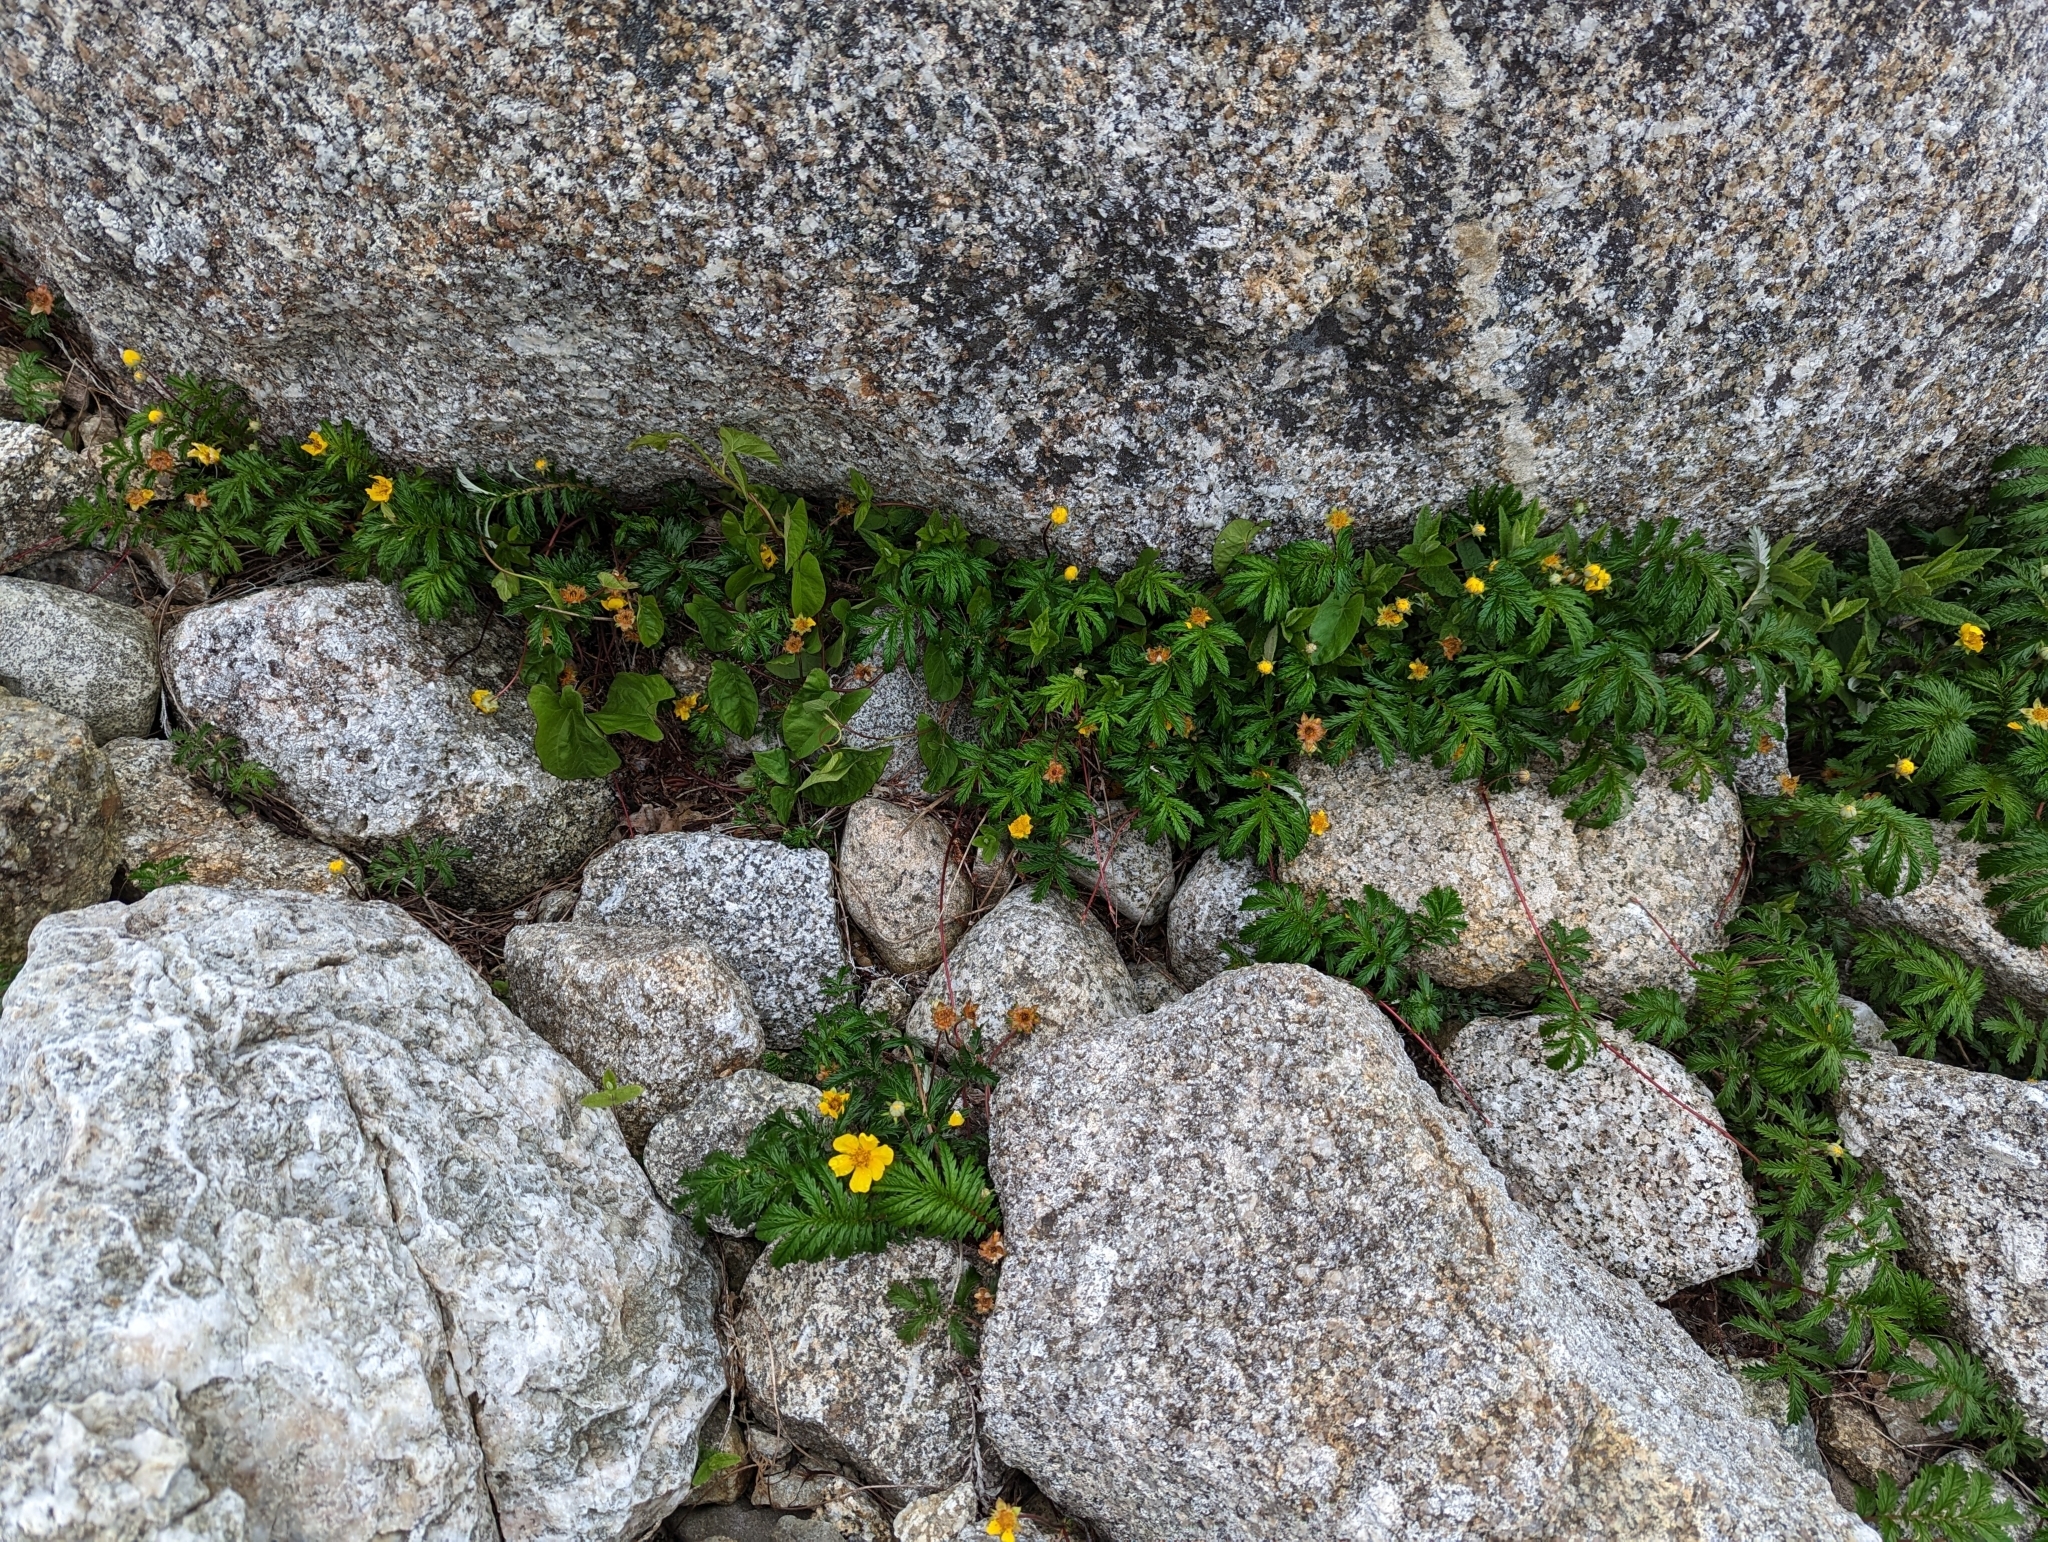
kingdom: Plantae
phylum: Tracheophyta
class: Magnoliopsida
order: Rosales
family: Rosaceae
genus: Argentina
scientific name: Argentina anserina
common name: Common silverweed
